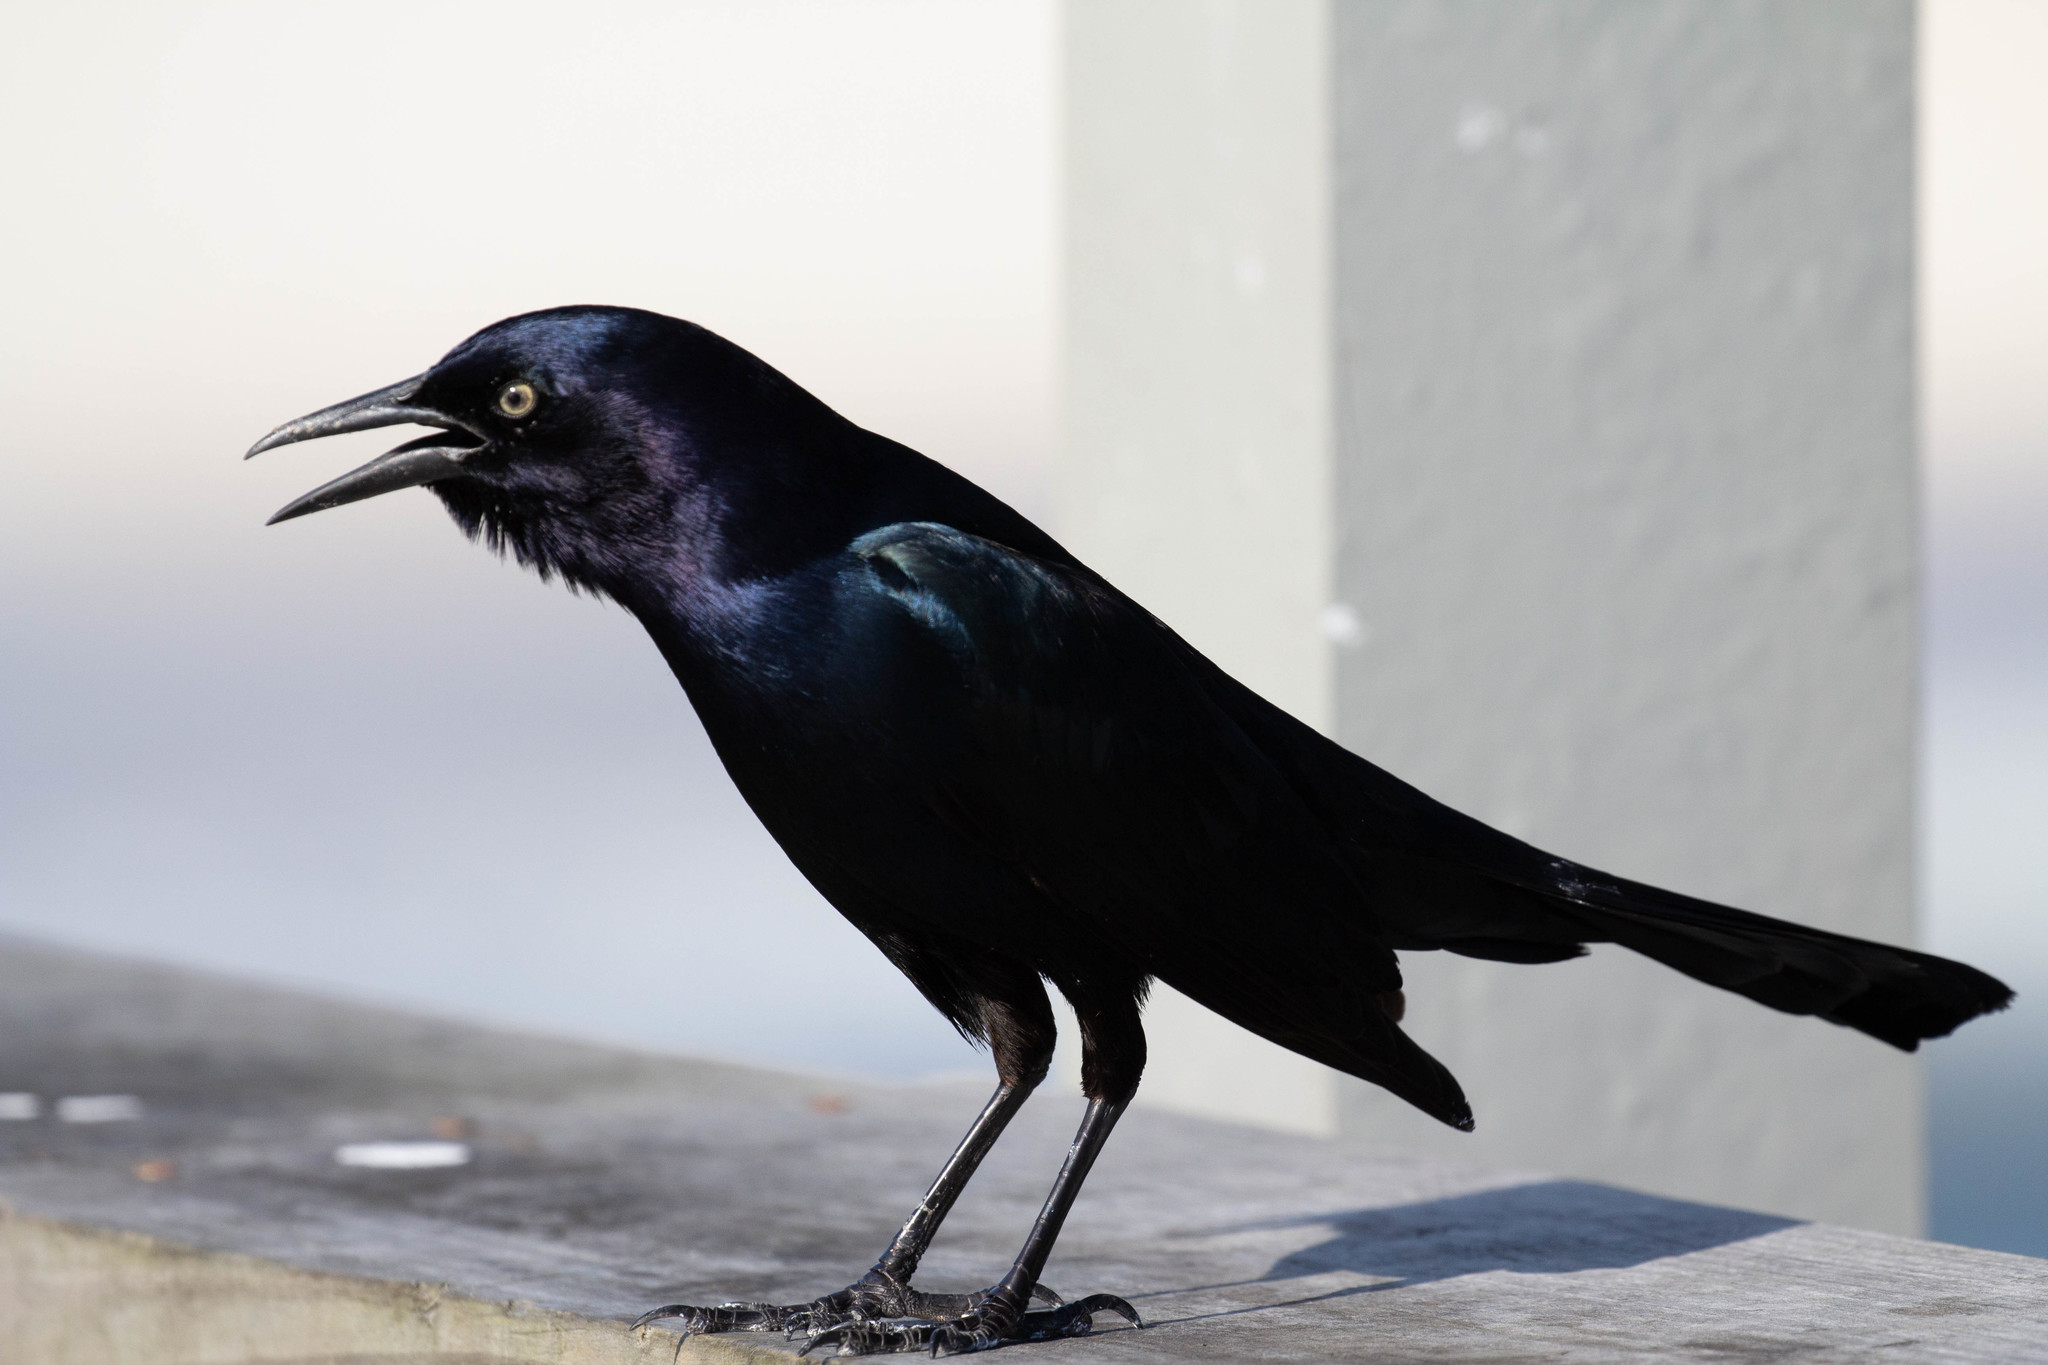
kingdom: Animalia
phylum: Chordata
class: Aves
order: Passeriformes
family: Icteridae
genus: Quiscalus
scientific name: Quiscalus major
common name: Boat-tailed grackle
